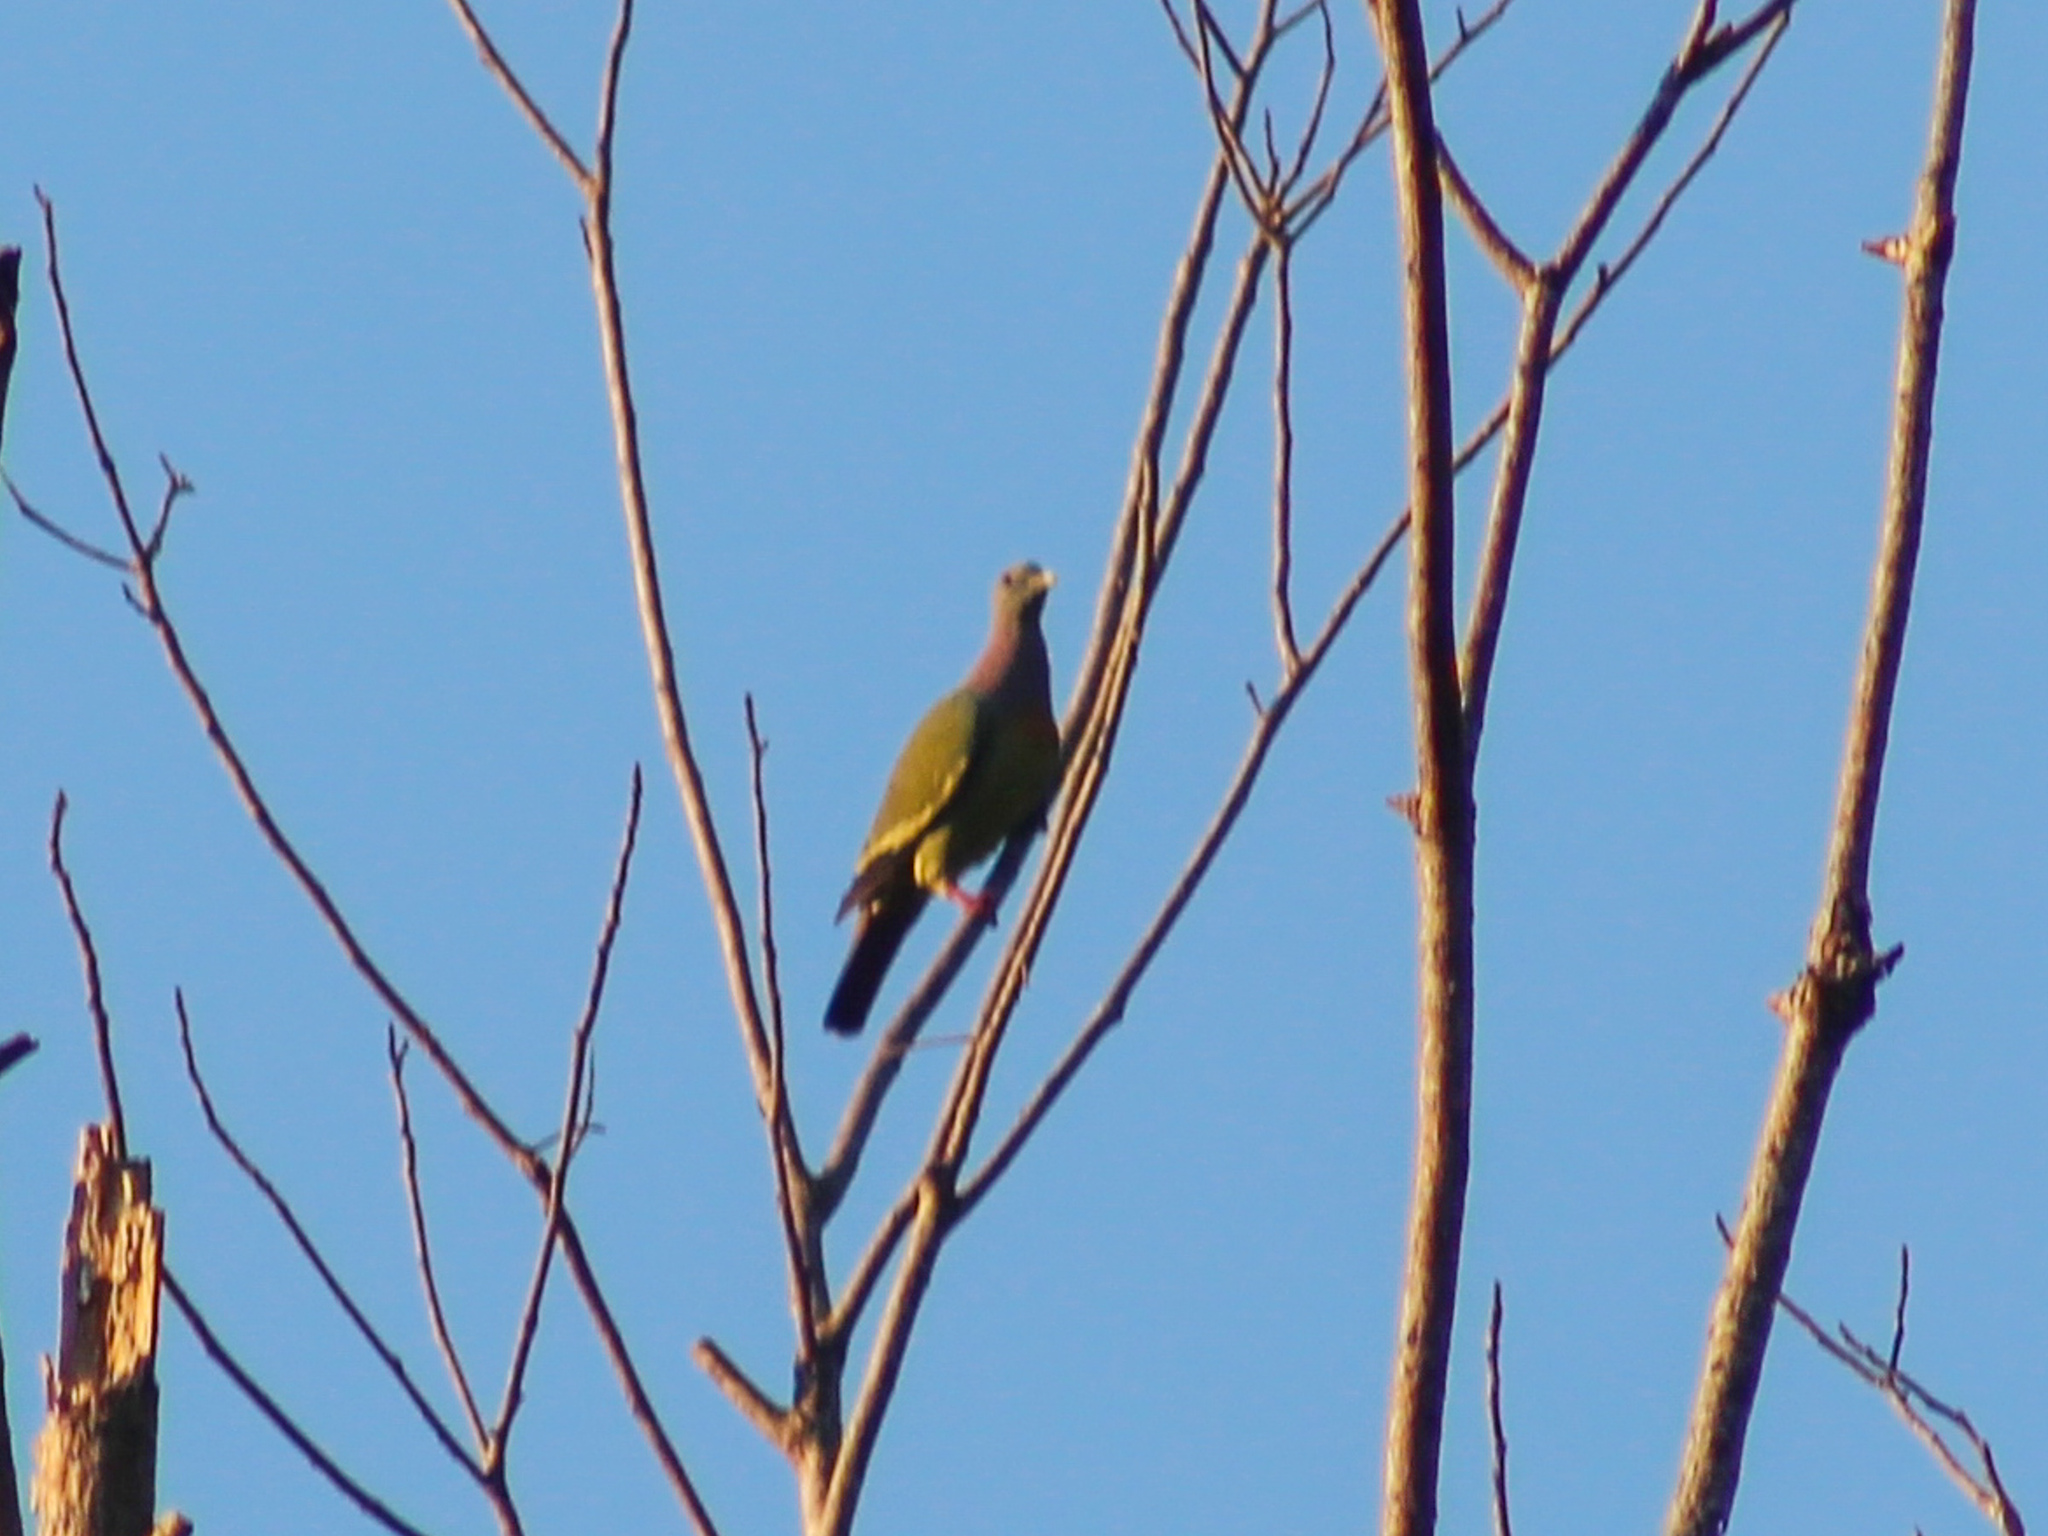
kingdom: Animalia
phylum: Chordata
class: Aves
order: Columbiformes
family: Columbidae
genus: Treron
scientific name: Treron vernans
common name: Pink-necked green pigeon
